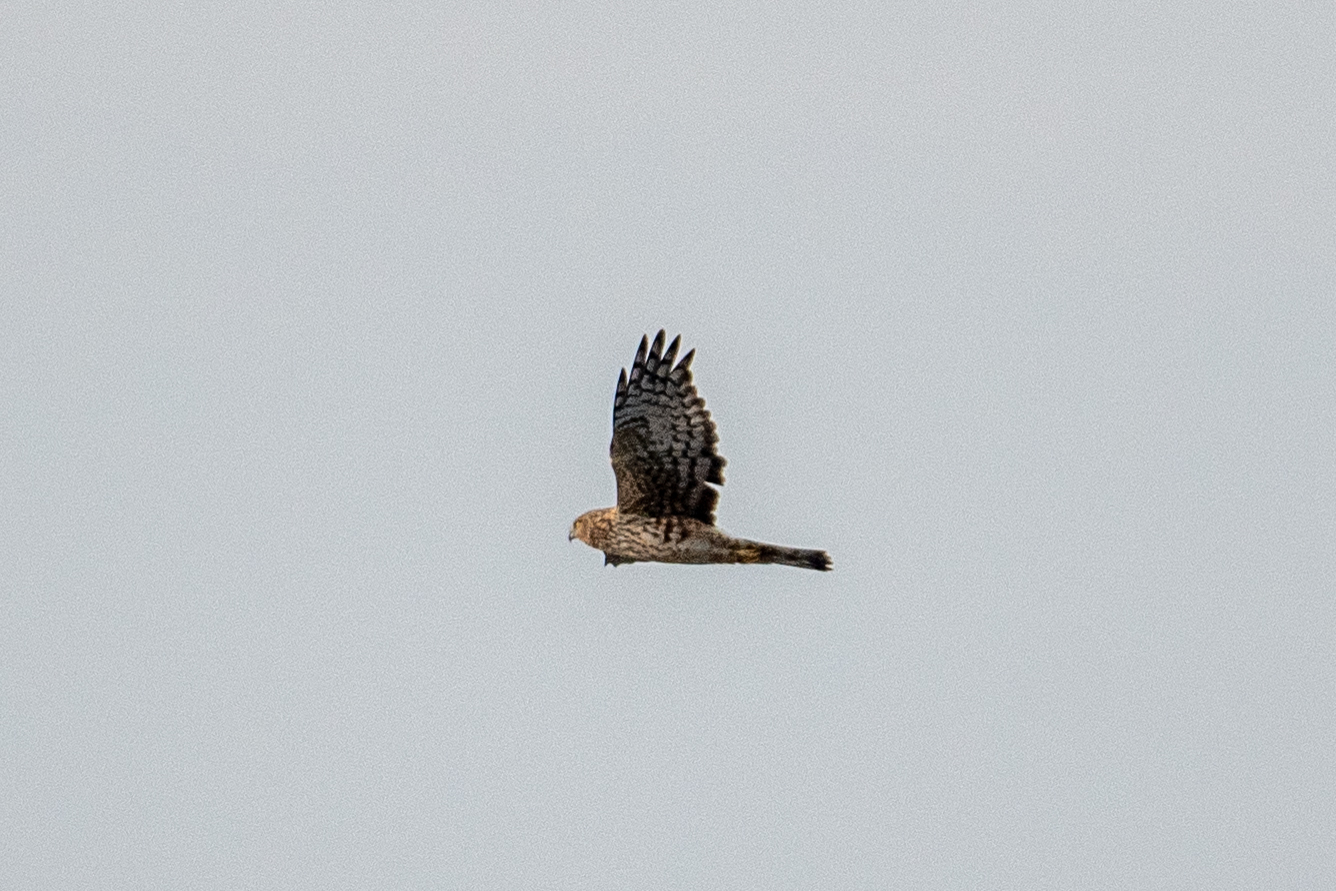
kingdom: Animalia
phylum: Chordata
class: Aves
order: Accipitriformes
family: Accipitridae
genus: Circus
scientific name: Circus cyaneus
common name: Hen harrier
